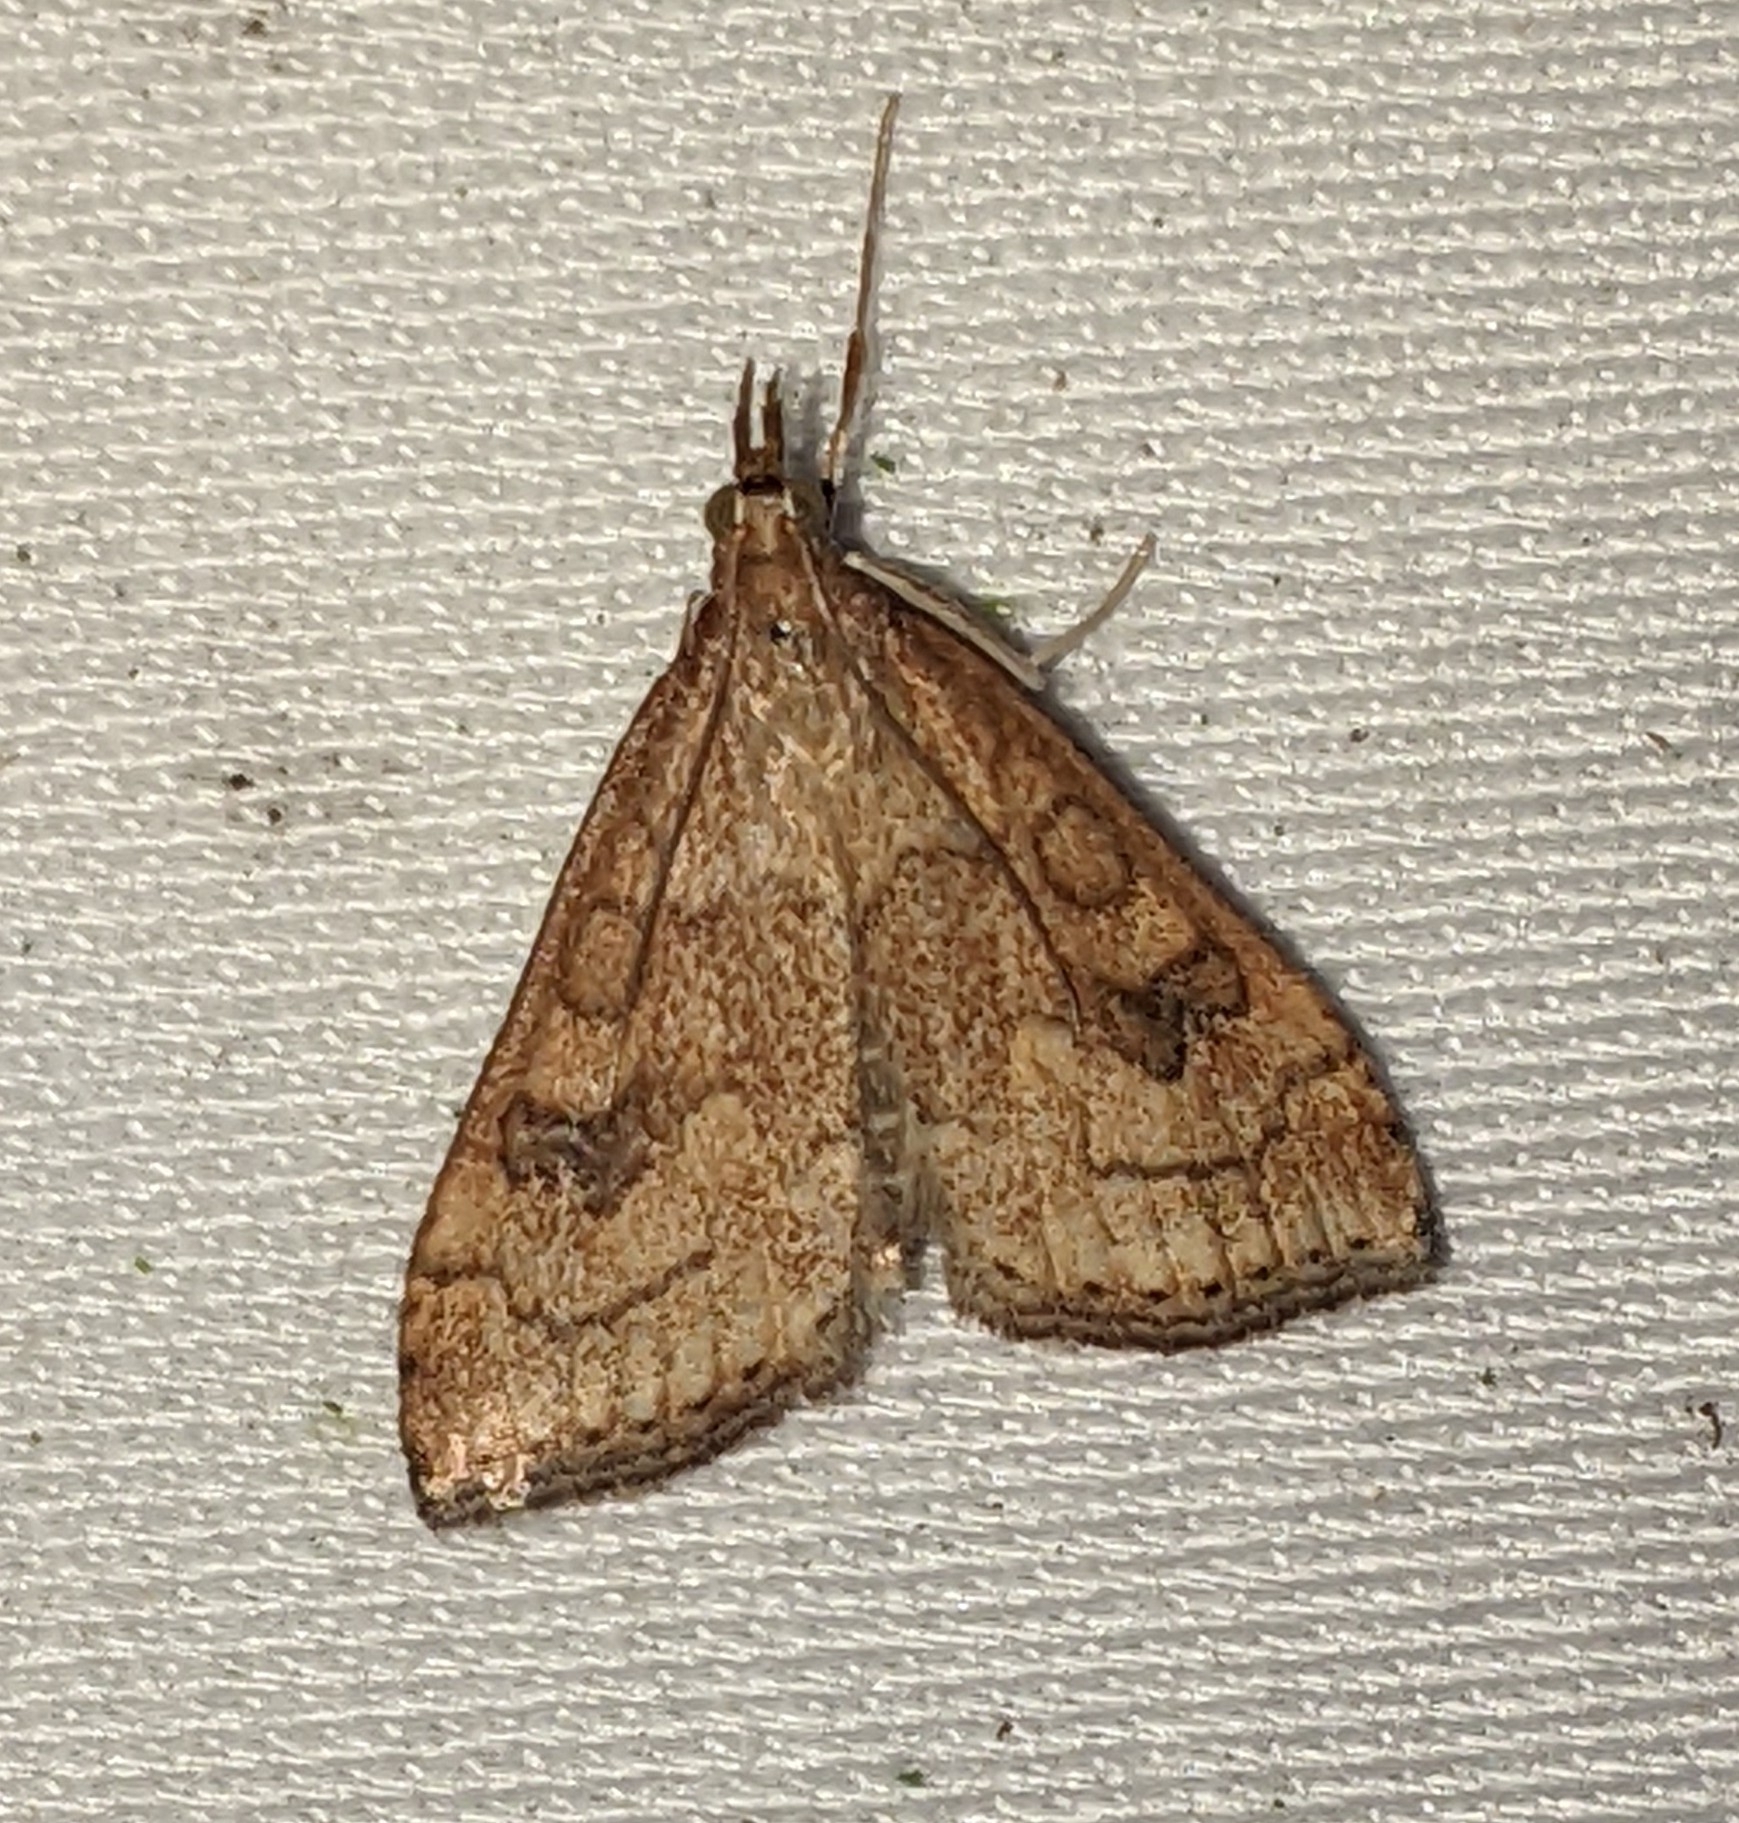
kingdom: Animalia
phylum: Arthropoda
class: Insecta
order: Lepidoptera
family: Crambidae
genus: Udea
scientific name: Udea profundalis
